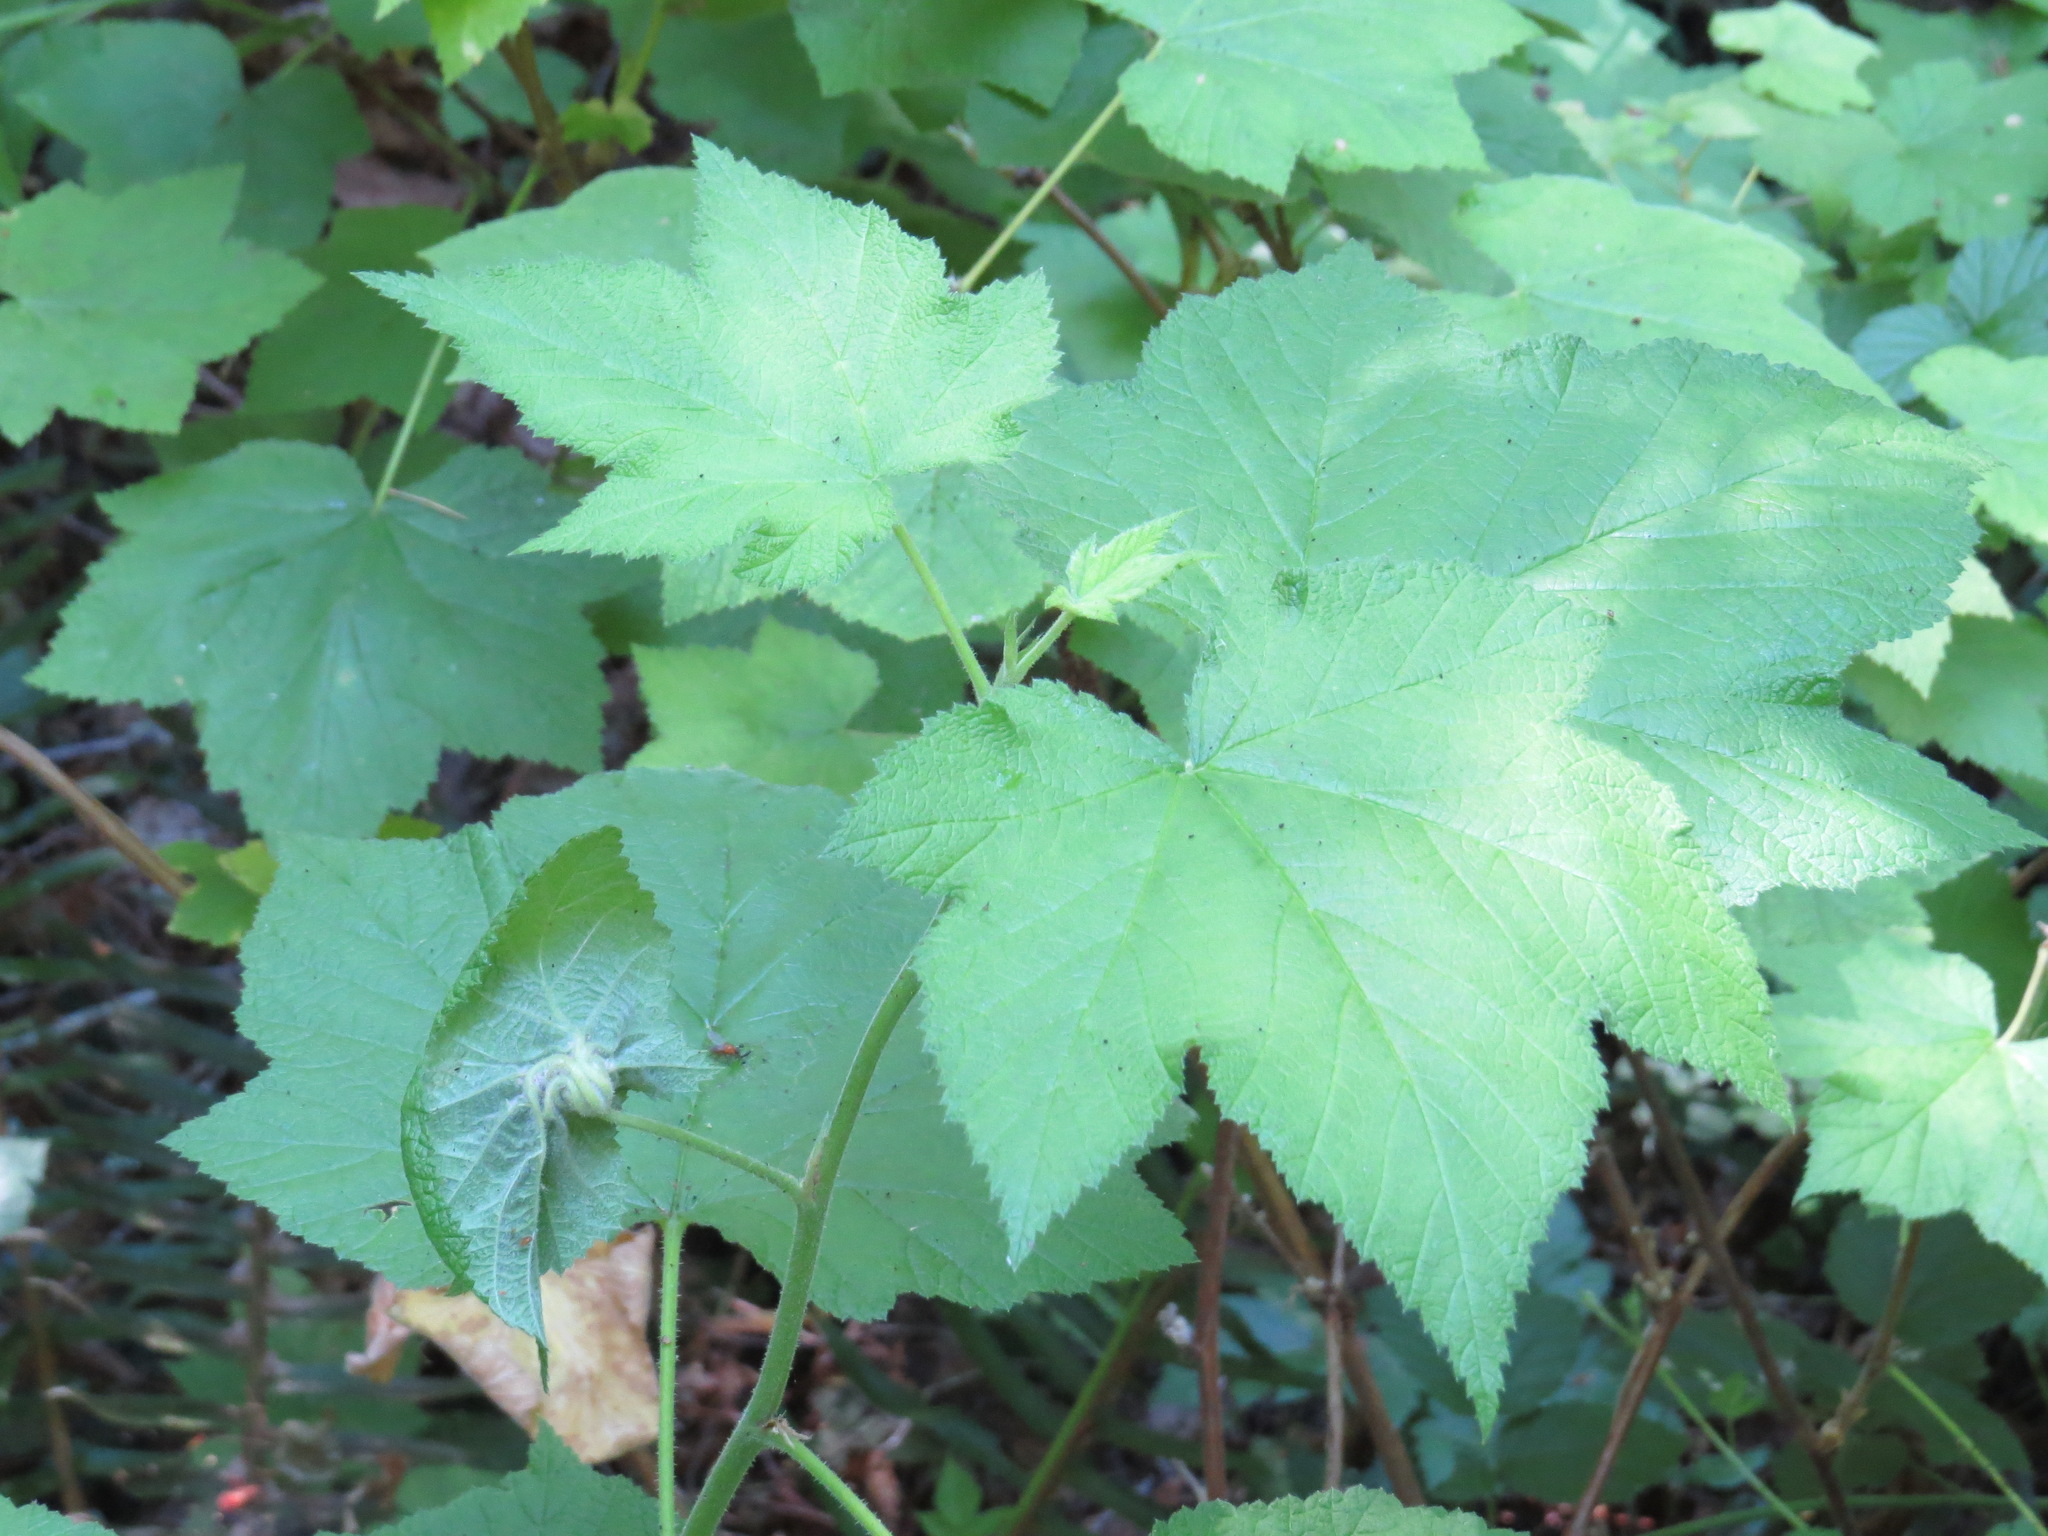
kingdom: Animalia
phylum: Arthropoda
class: Insecta
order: Diptera
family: Cecidomyiidae
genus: Dasineura
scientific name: Dasineura
